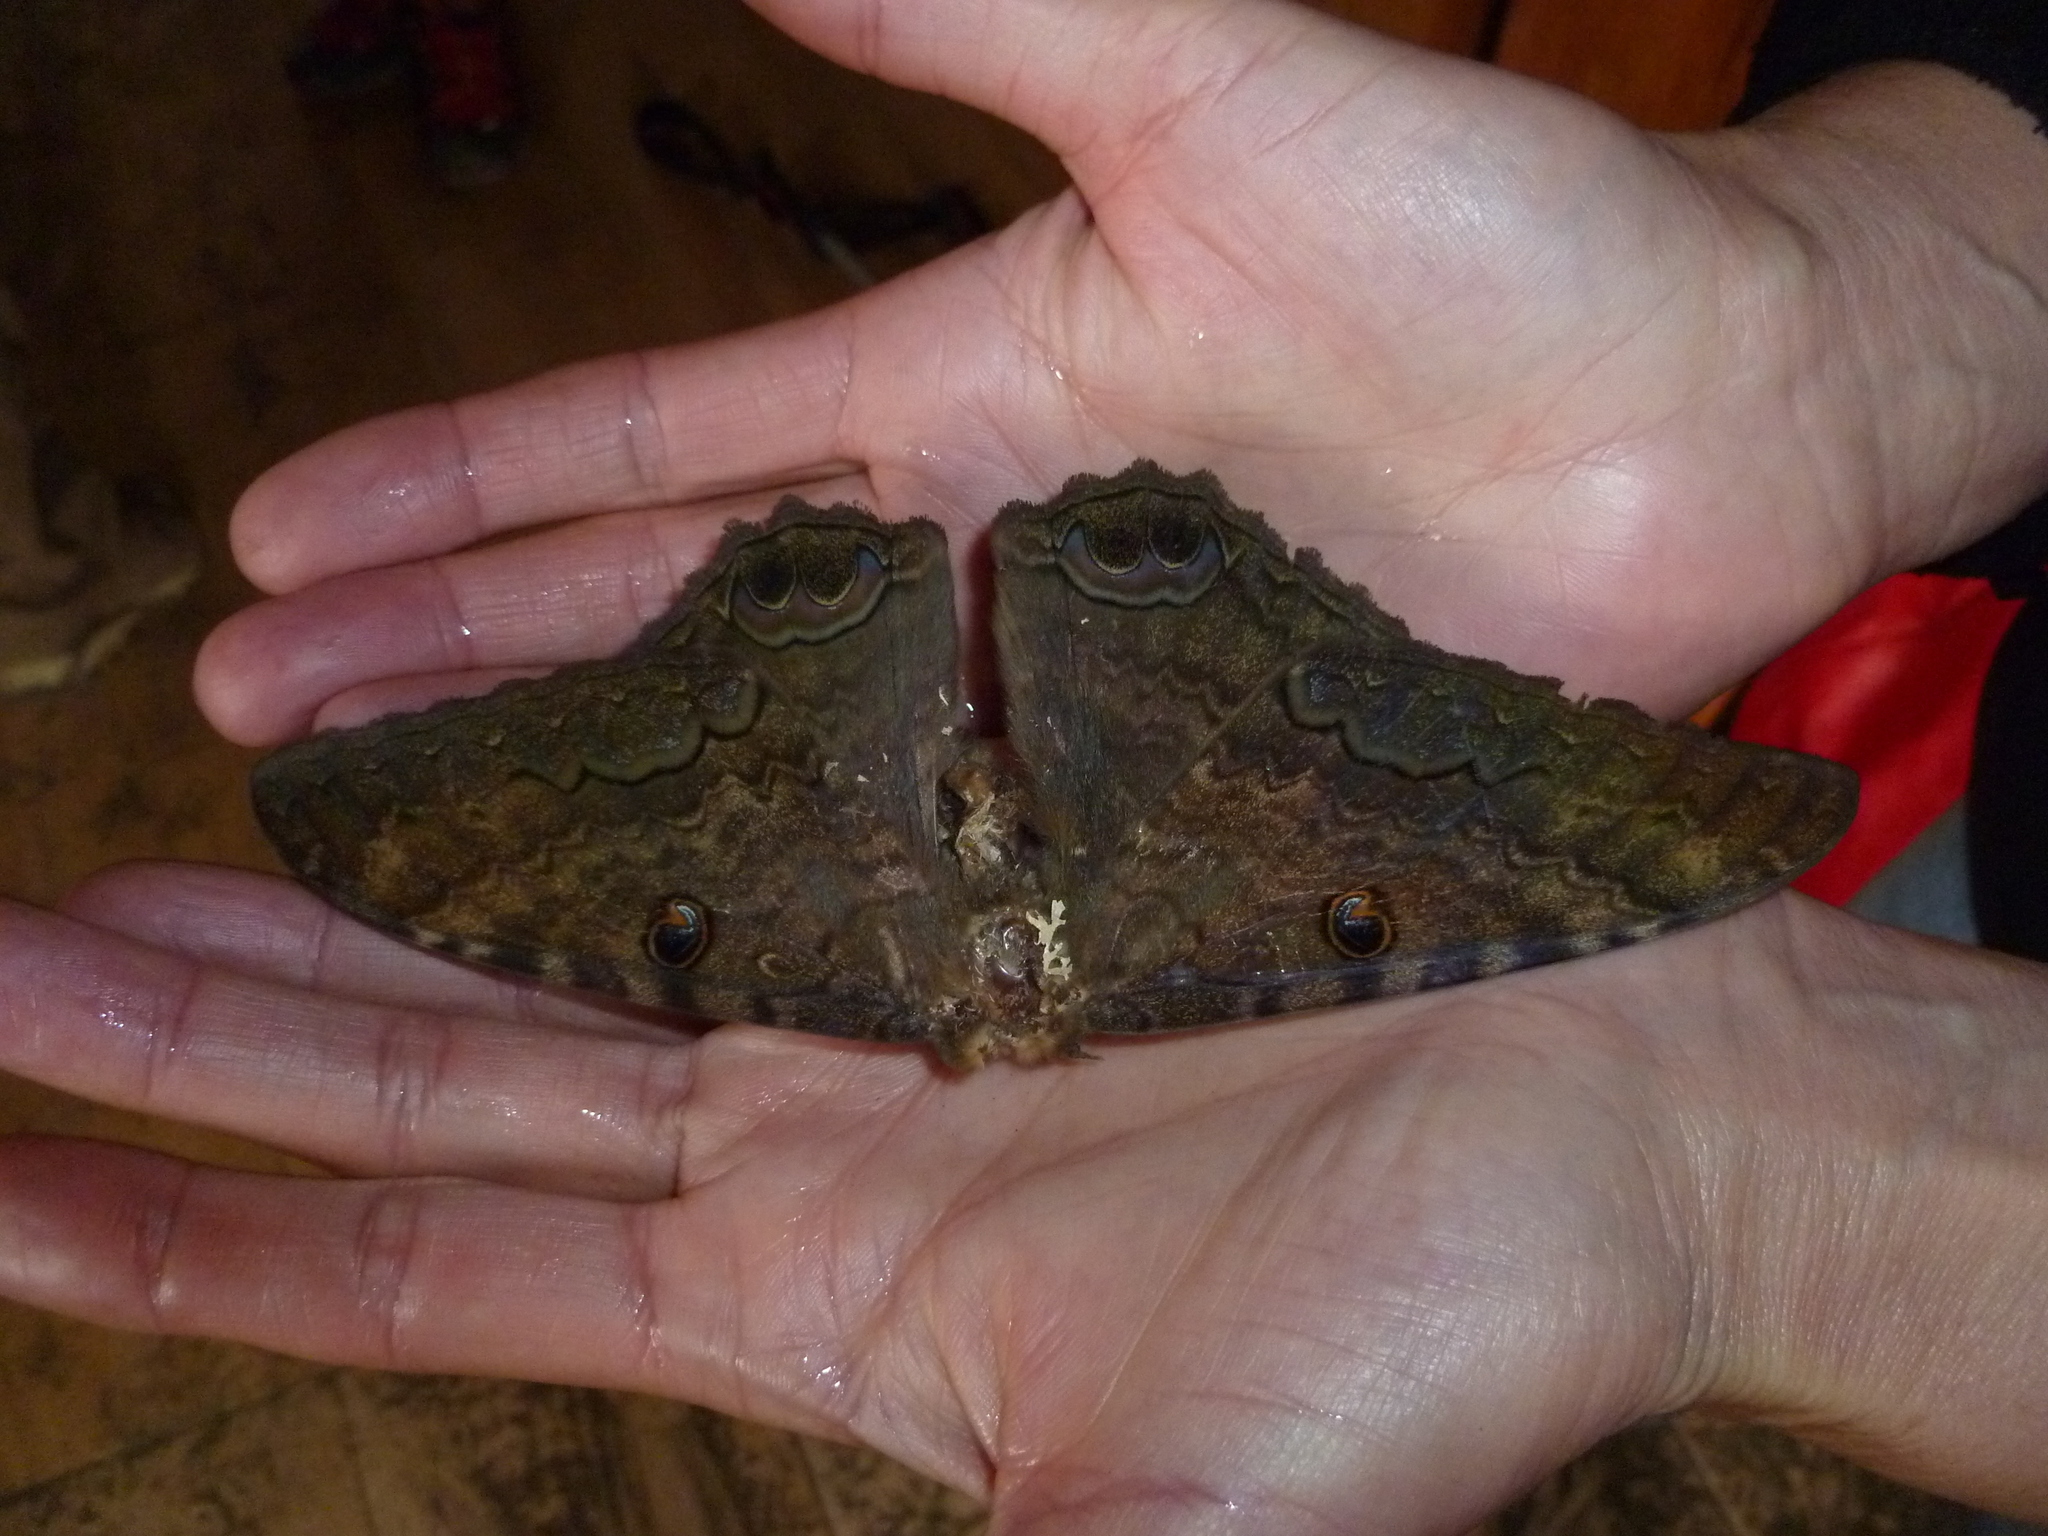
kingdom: Animalia
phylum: Arthropoda
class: Insecta
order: Lepidoptera
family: Erebidae
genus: Ascalapha
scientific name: Ascalapha odorata
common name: Black witch
